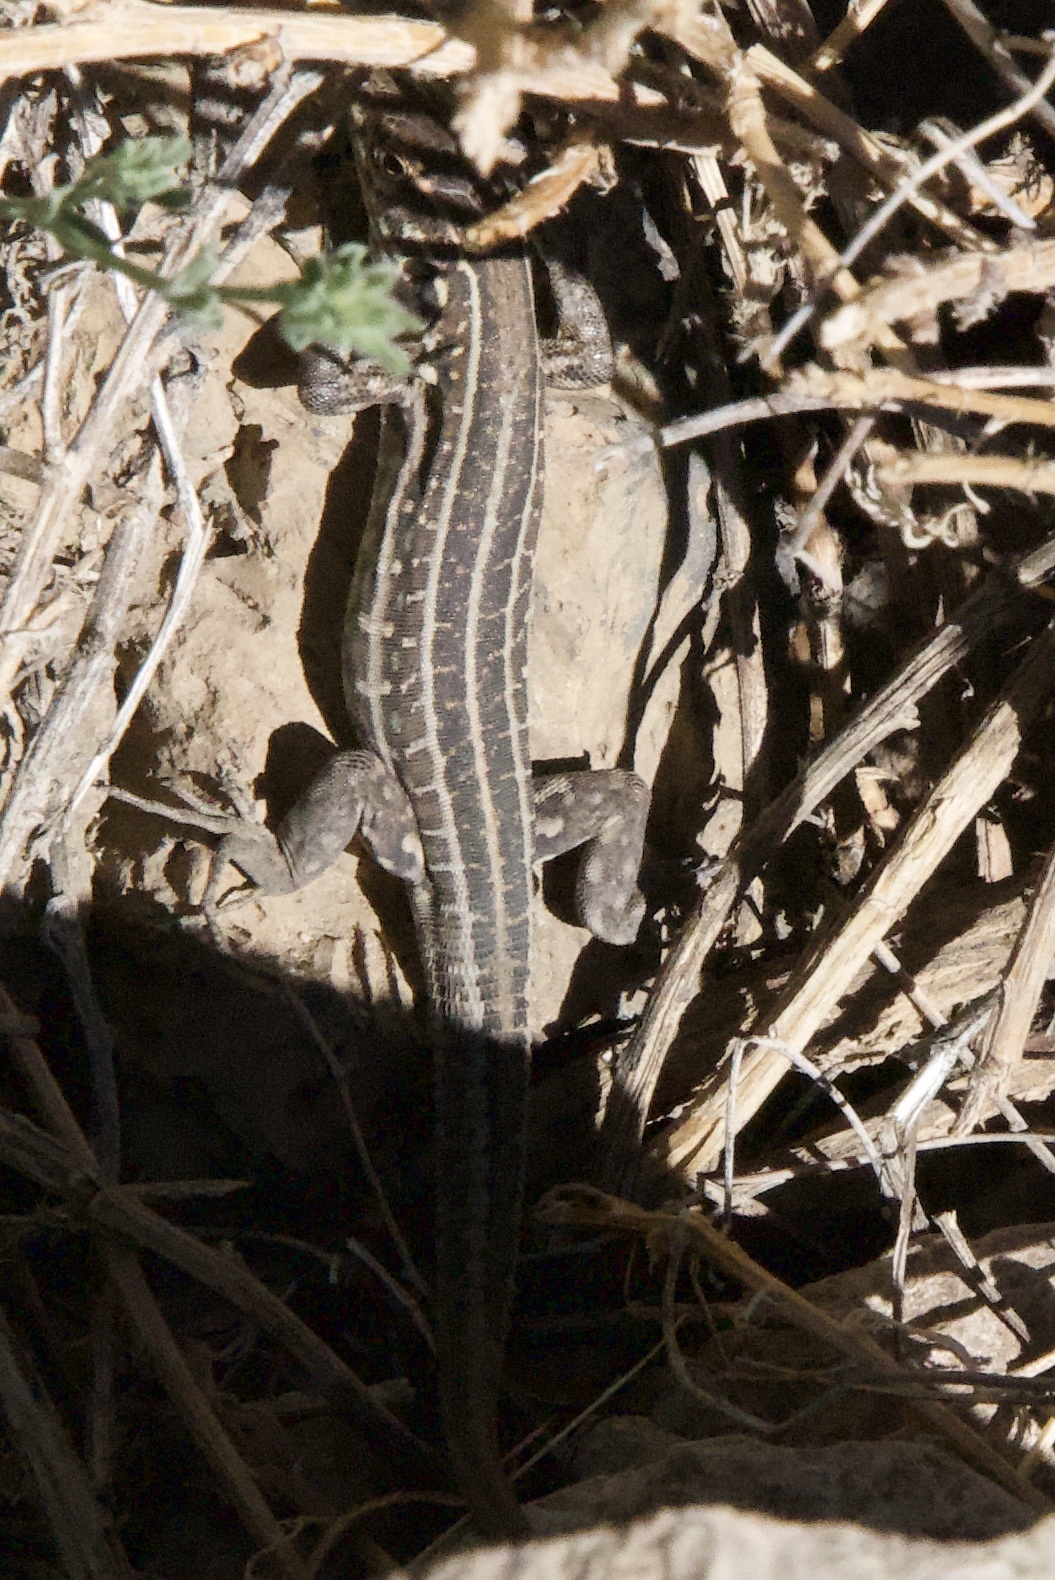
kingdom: Animalia
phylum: Chordata
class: Squamata
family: Lacertidae
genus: Gallotia
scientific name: Gallotia galloti
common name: Gallot's lizard
